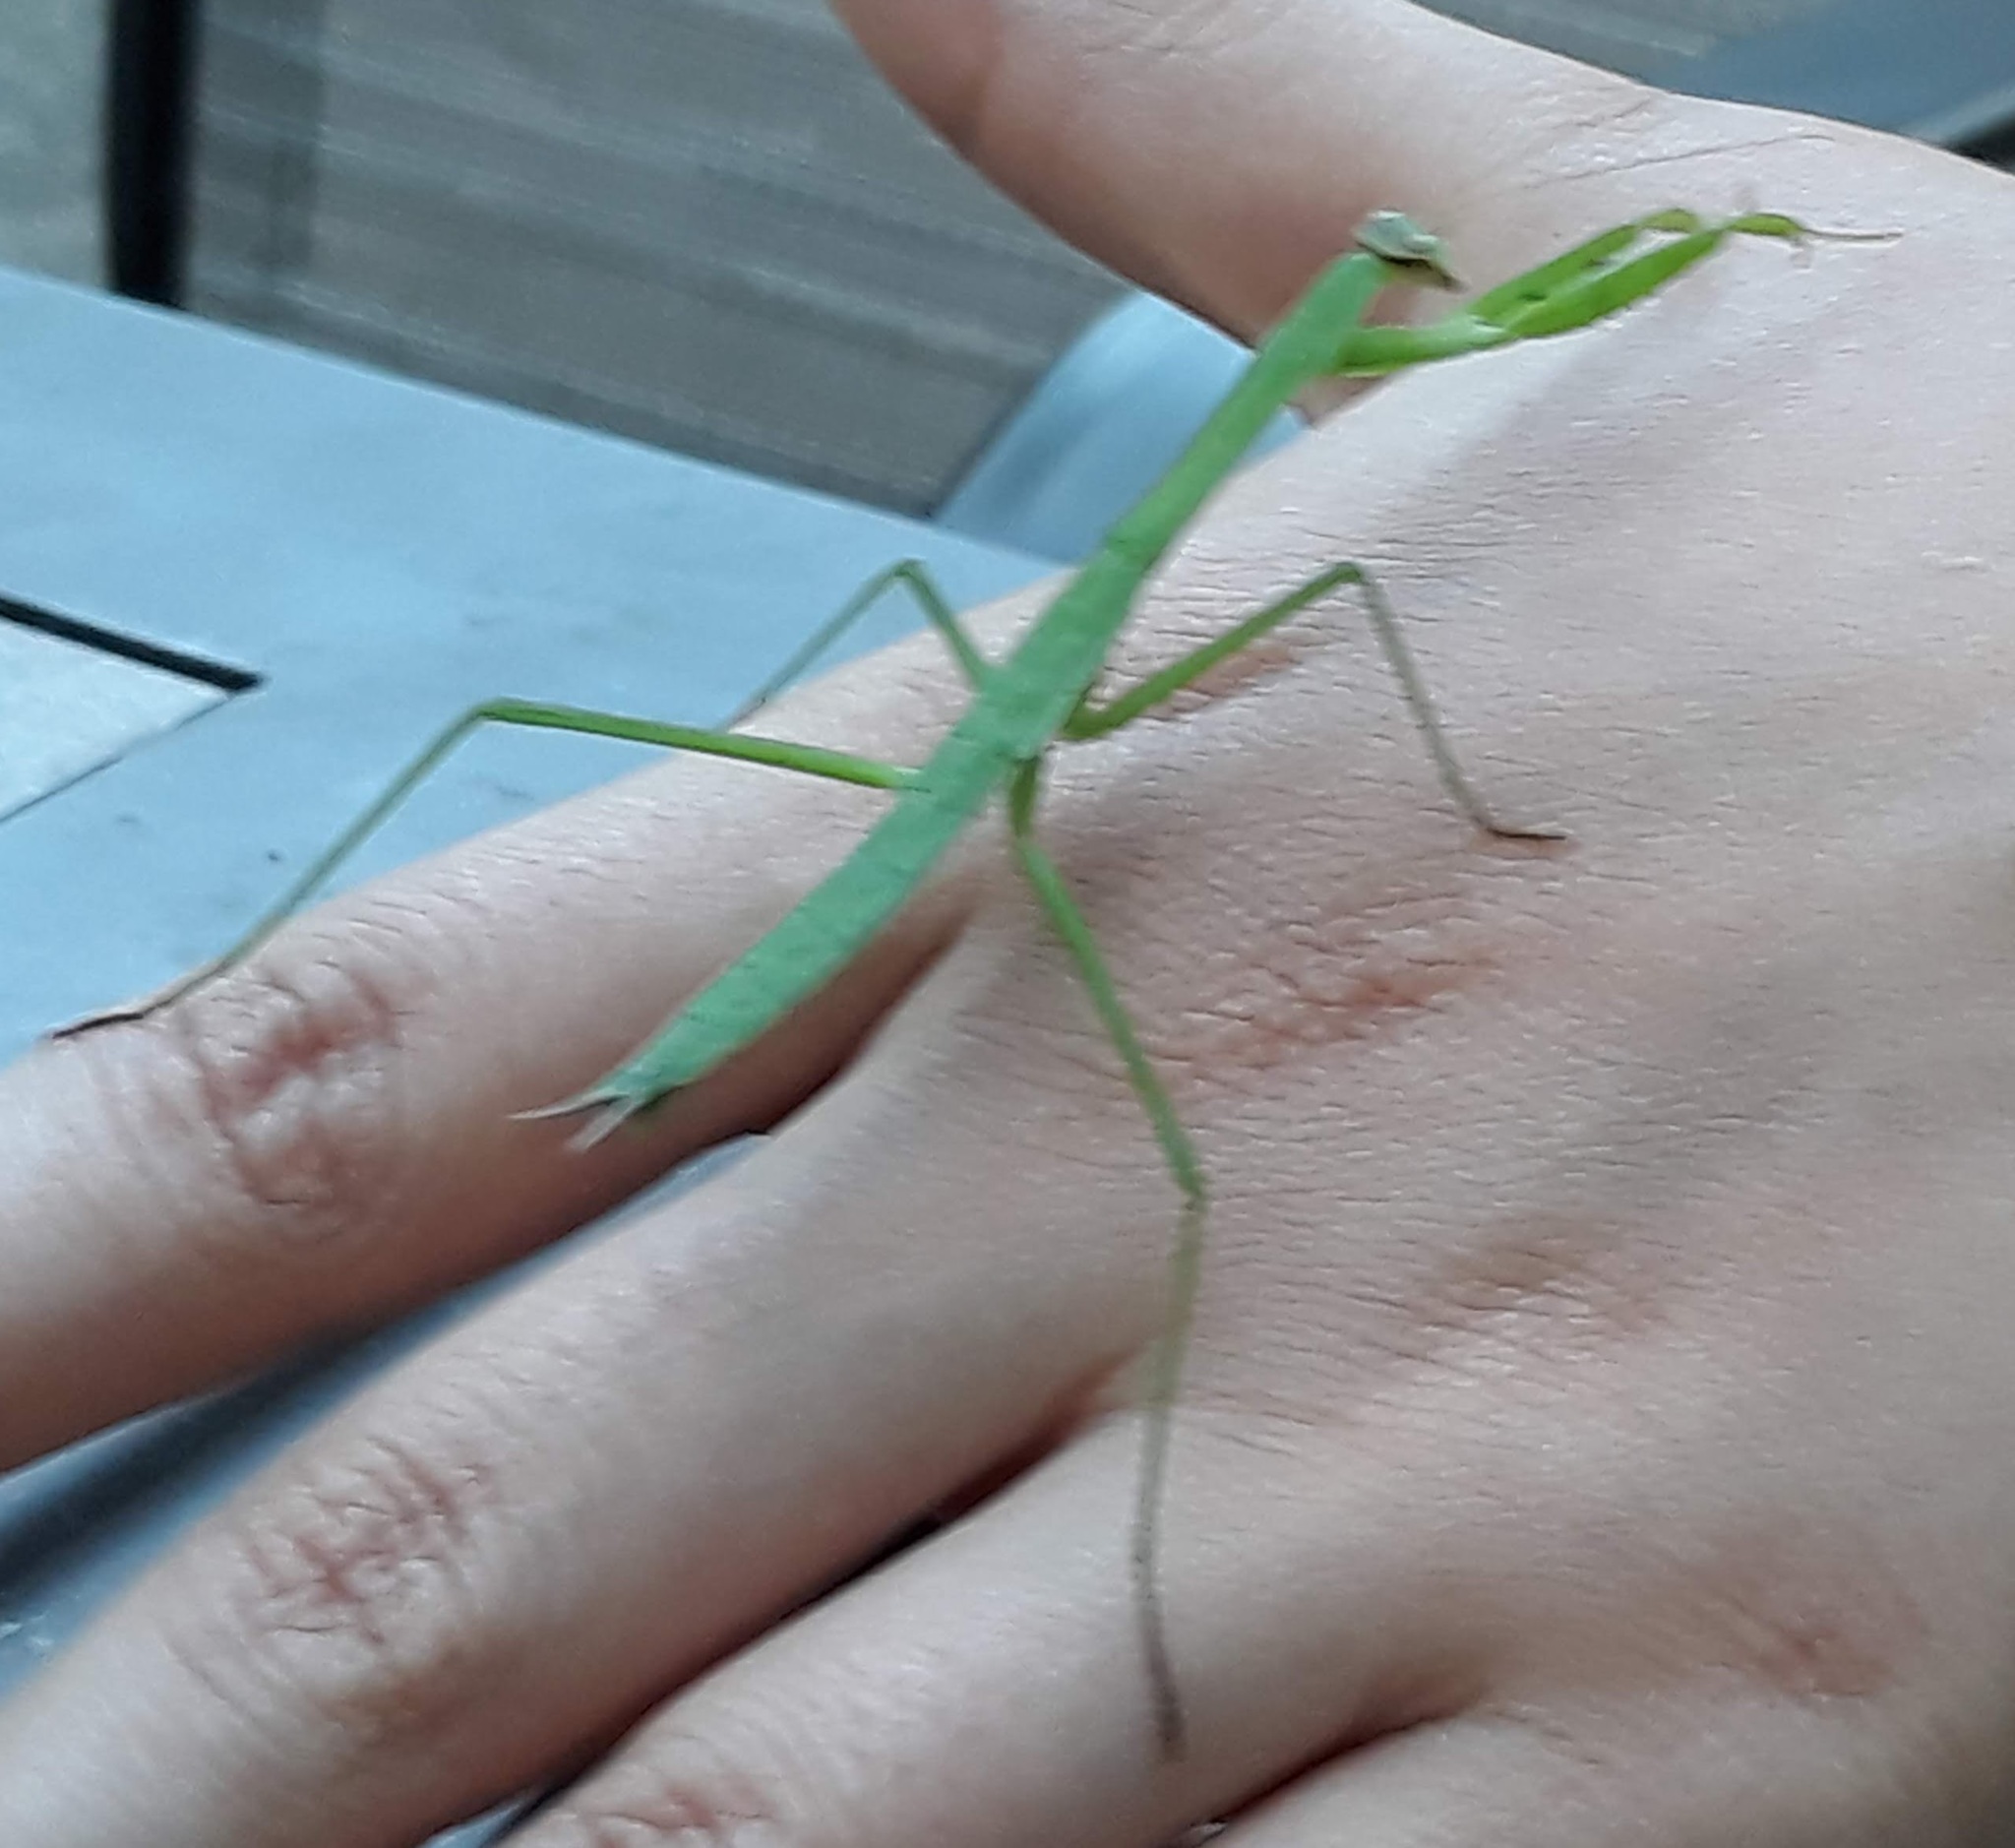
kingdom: Animalia
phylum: Arthropoda
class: Insecta
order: Mantodea
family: Mantidae
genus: Tenodera
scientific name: Tenodera sinensis
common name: Chinese mantis
